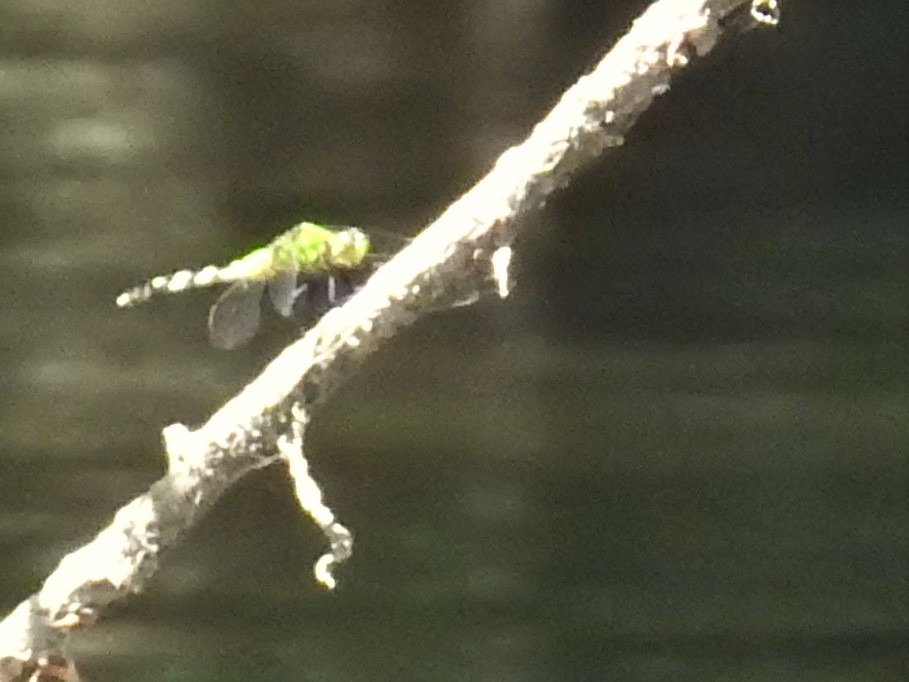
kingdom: Animalia
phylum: Arthropoda
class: Insecta
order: Odonata
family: Libellulidae
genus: Erythemis
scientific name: Erythemis simplicicollis
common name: Eastern pondhawk
